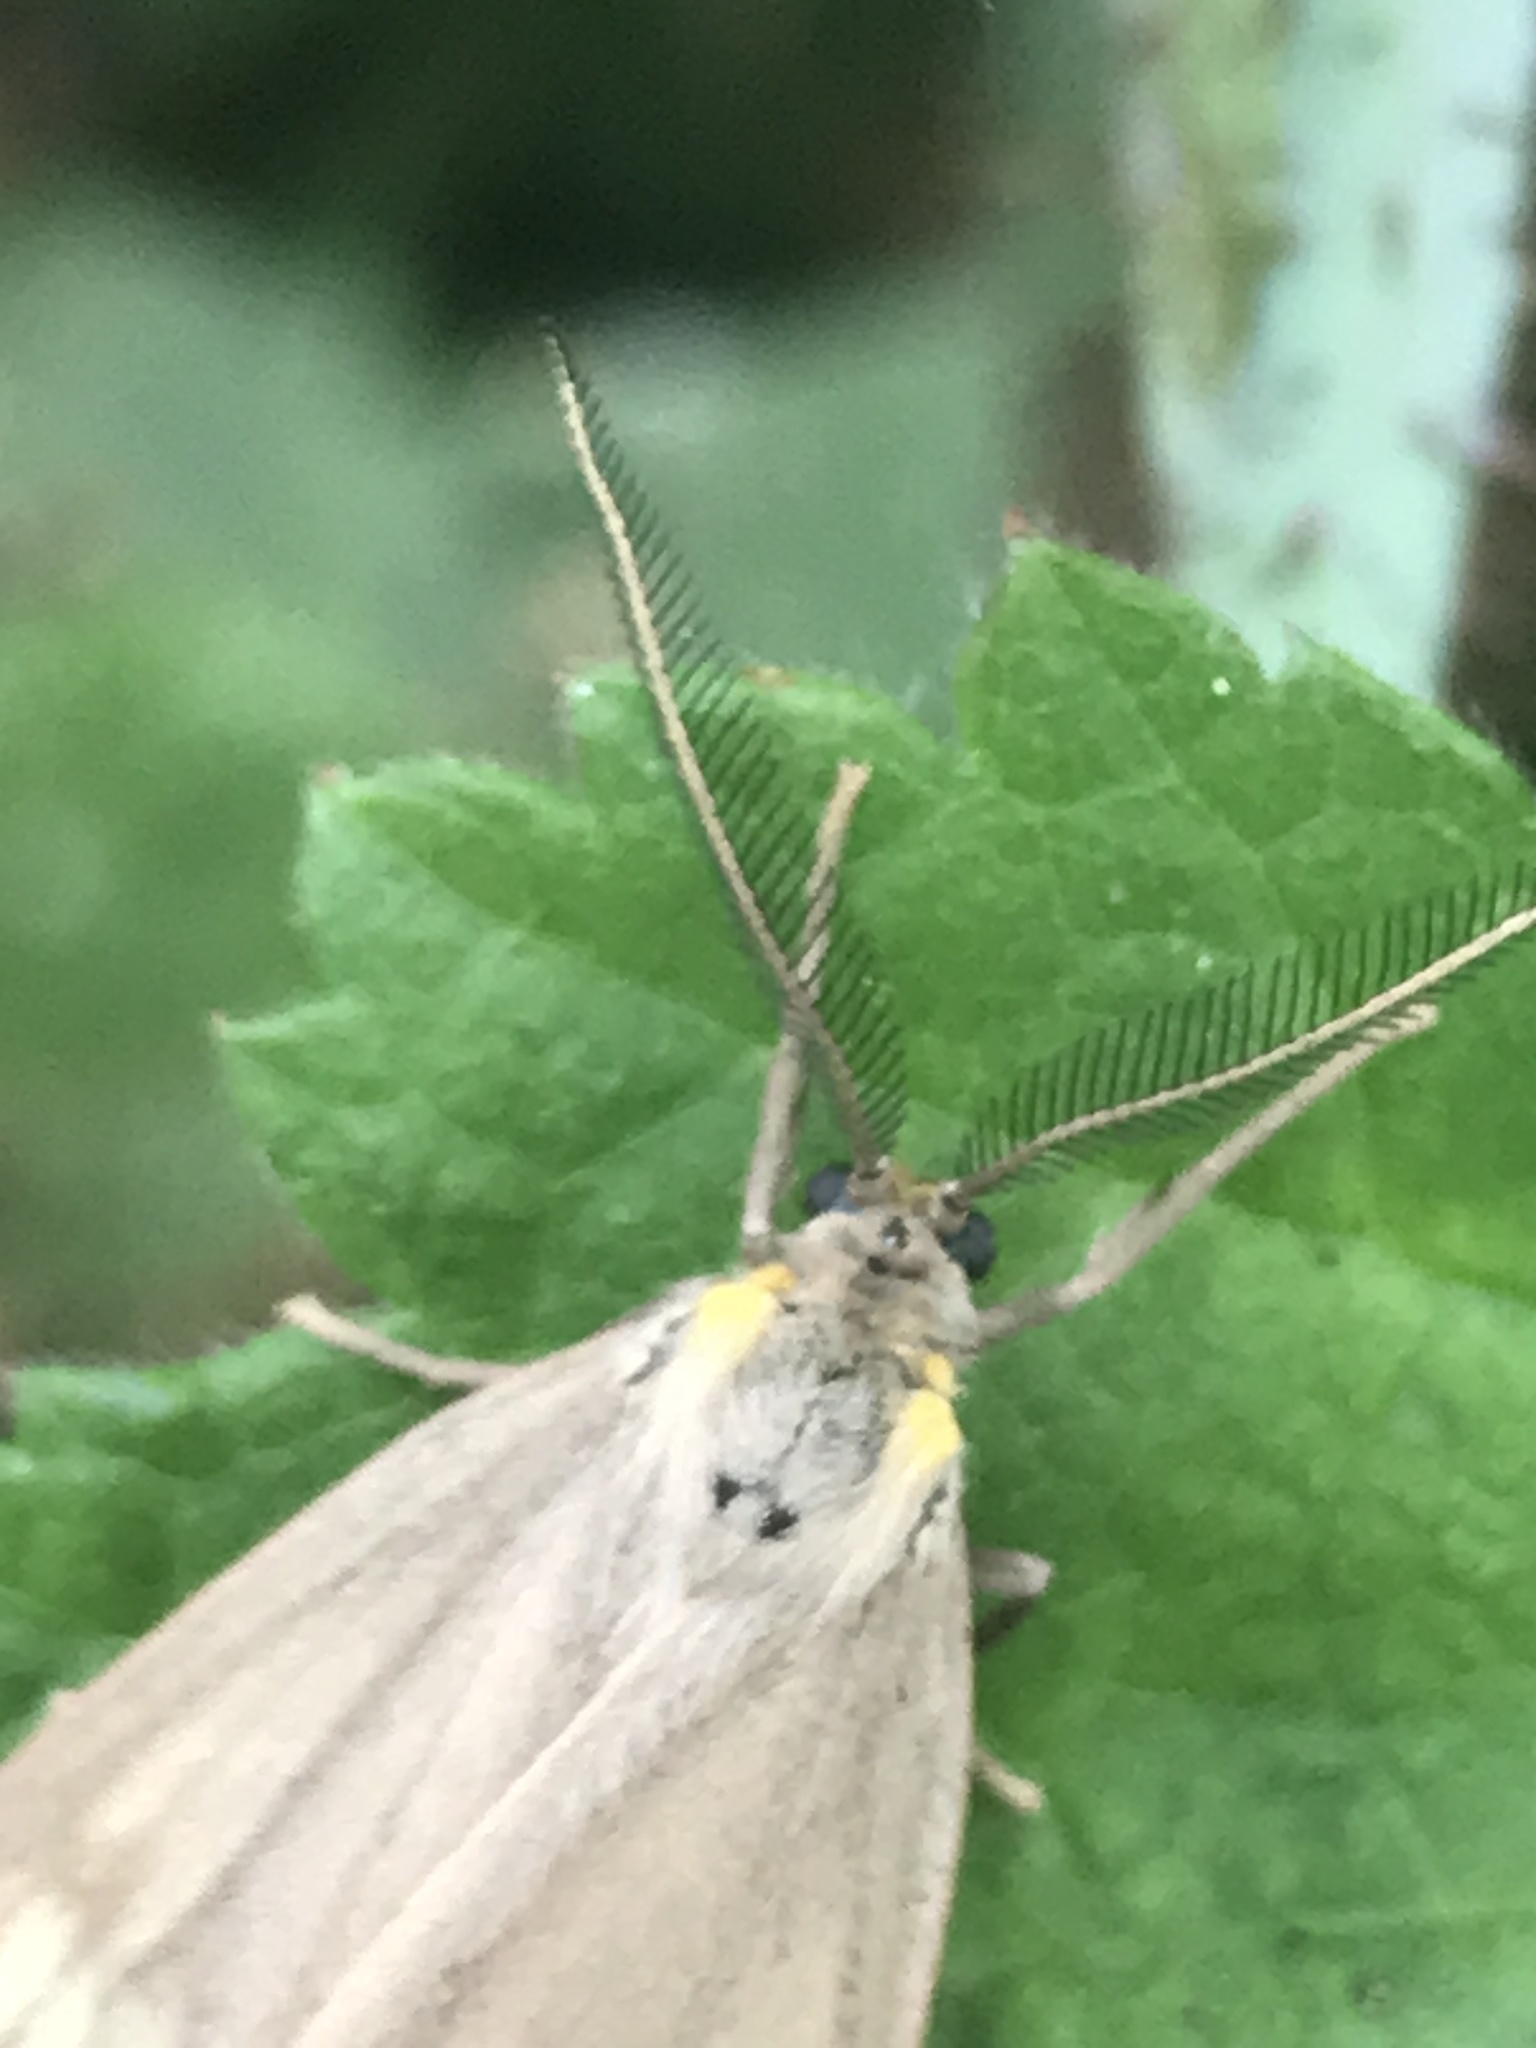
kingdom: Animalia
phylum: Arthropoda
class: Insecta
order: Lepidoptera
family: Notodontidae
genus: Phryganidia
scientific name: Phryganidia californica
